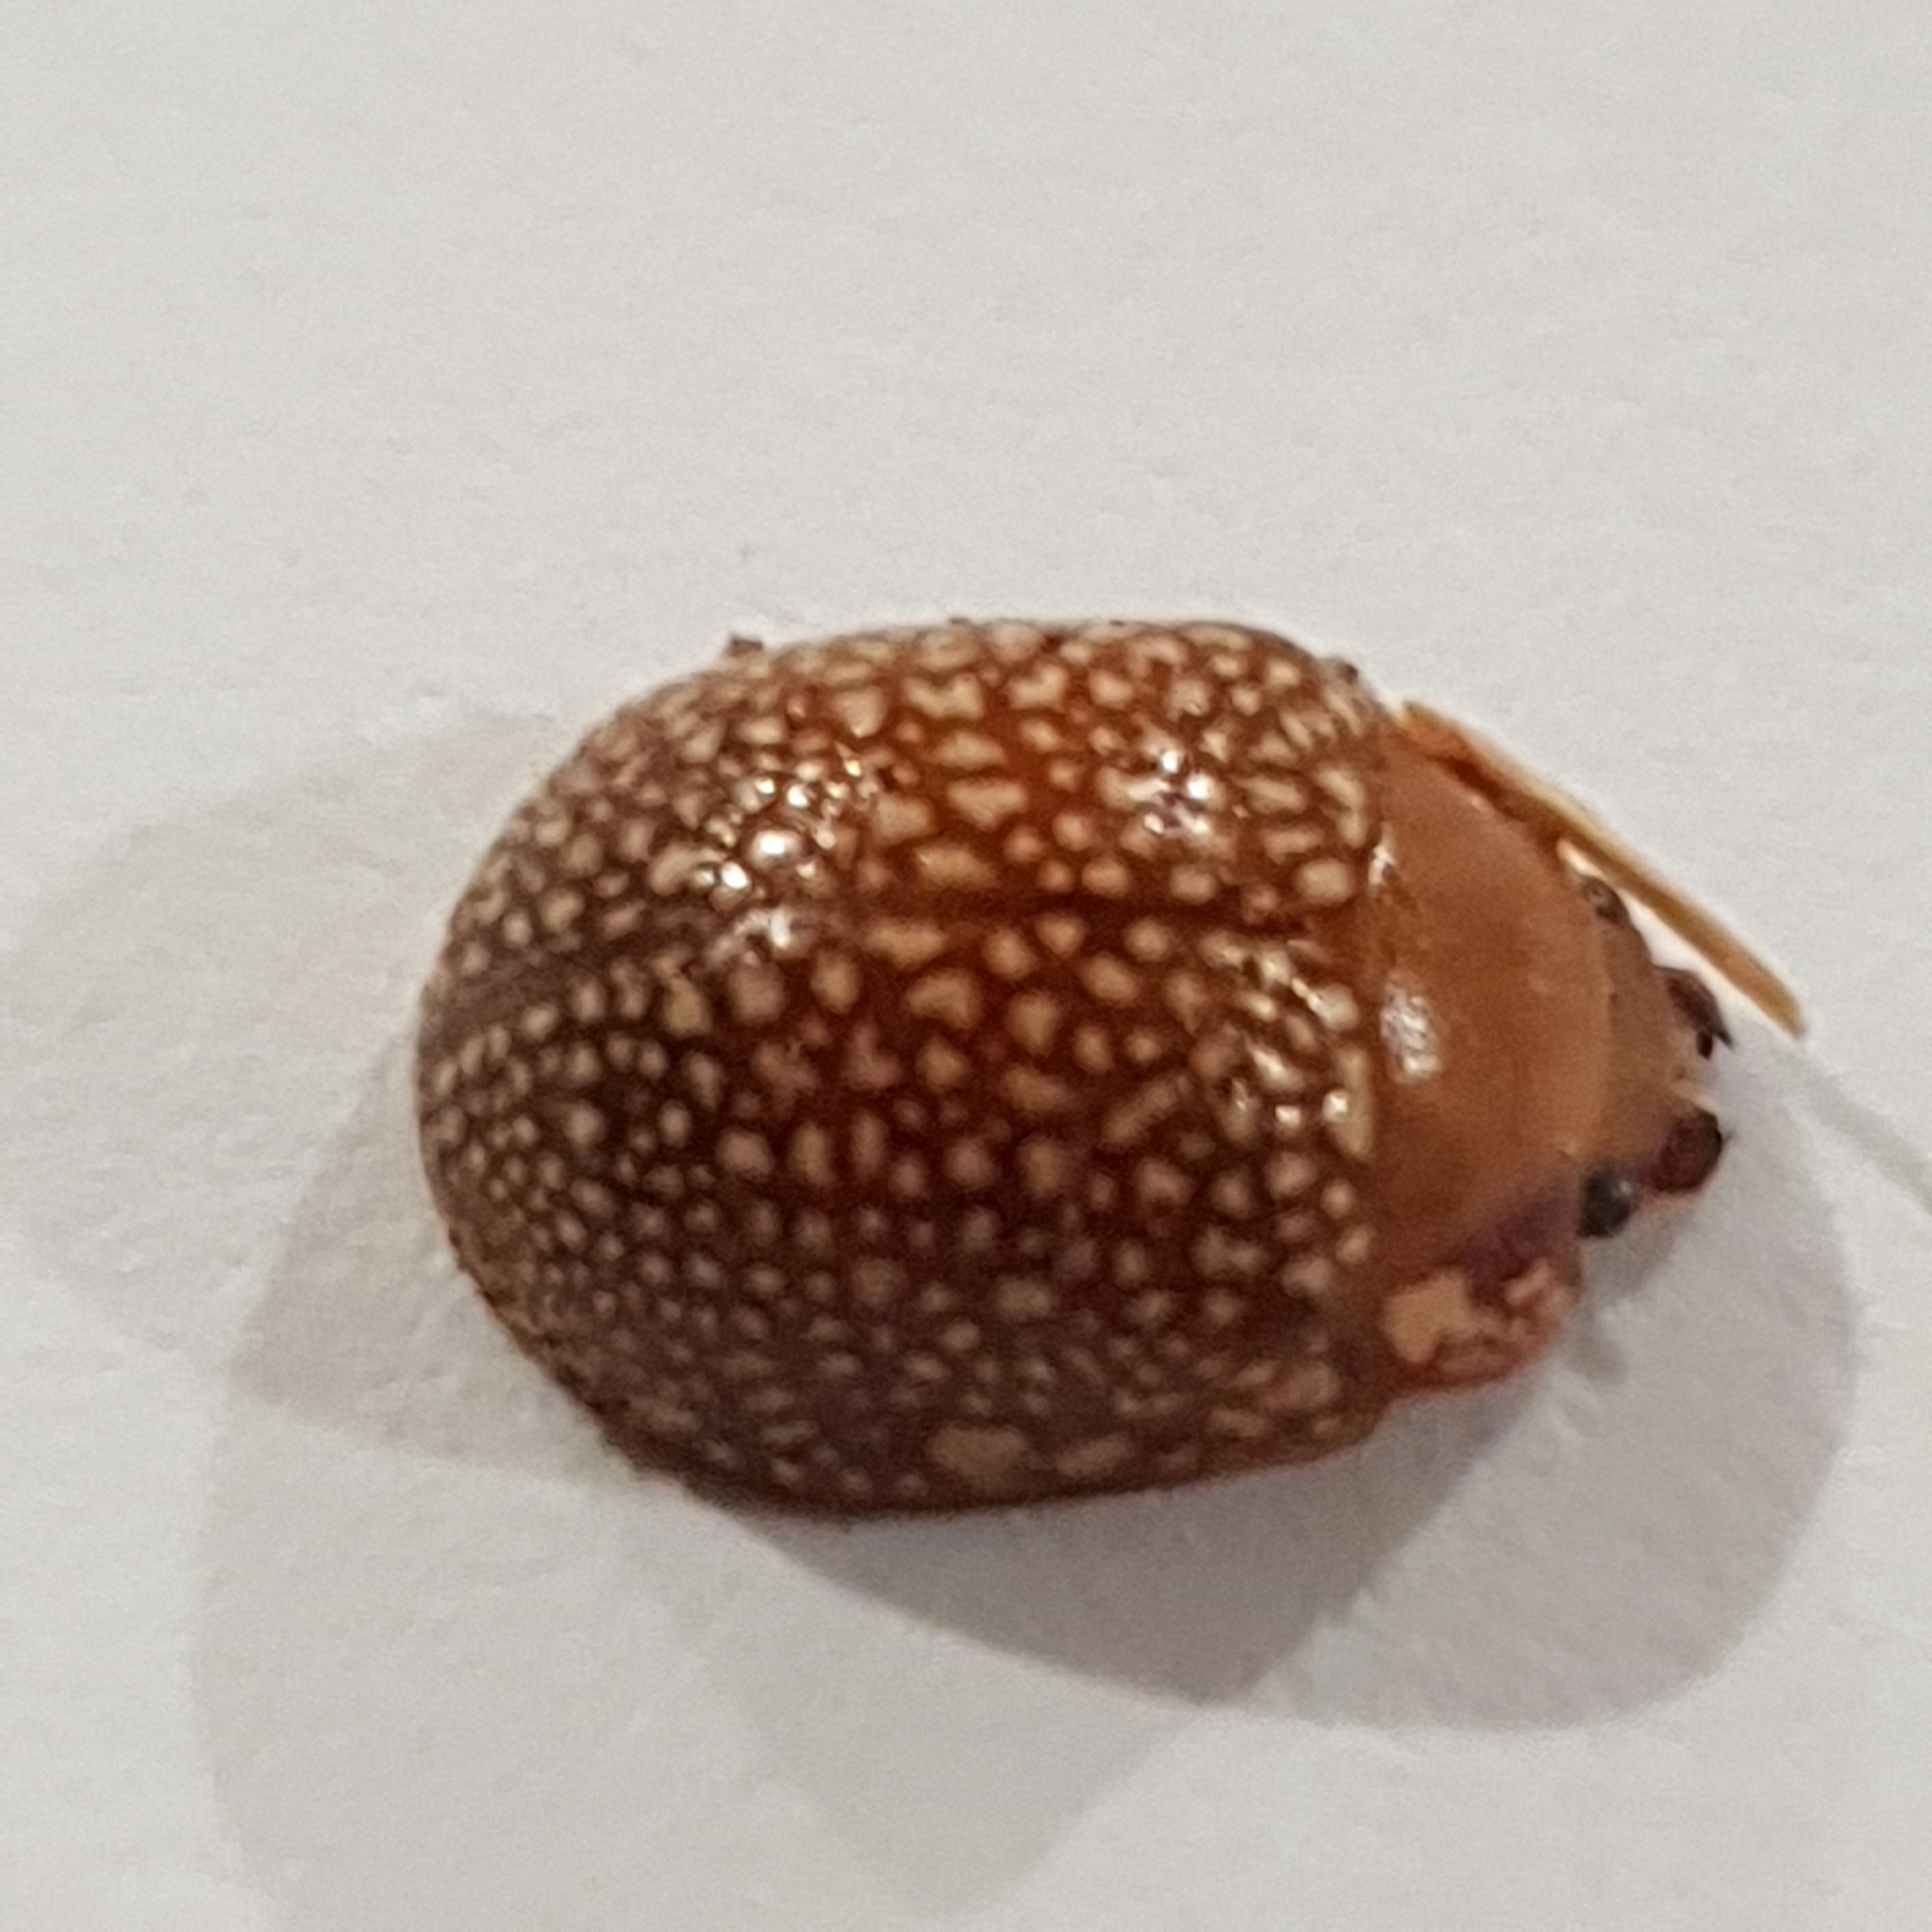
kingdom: Animalia
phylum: Arthropoda
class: Insecta
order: Coleoptera
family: Chrysomelidae
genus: Paropsis
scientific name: Paropsis
